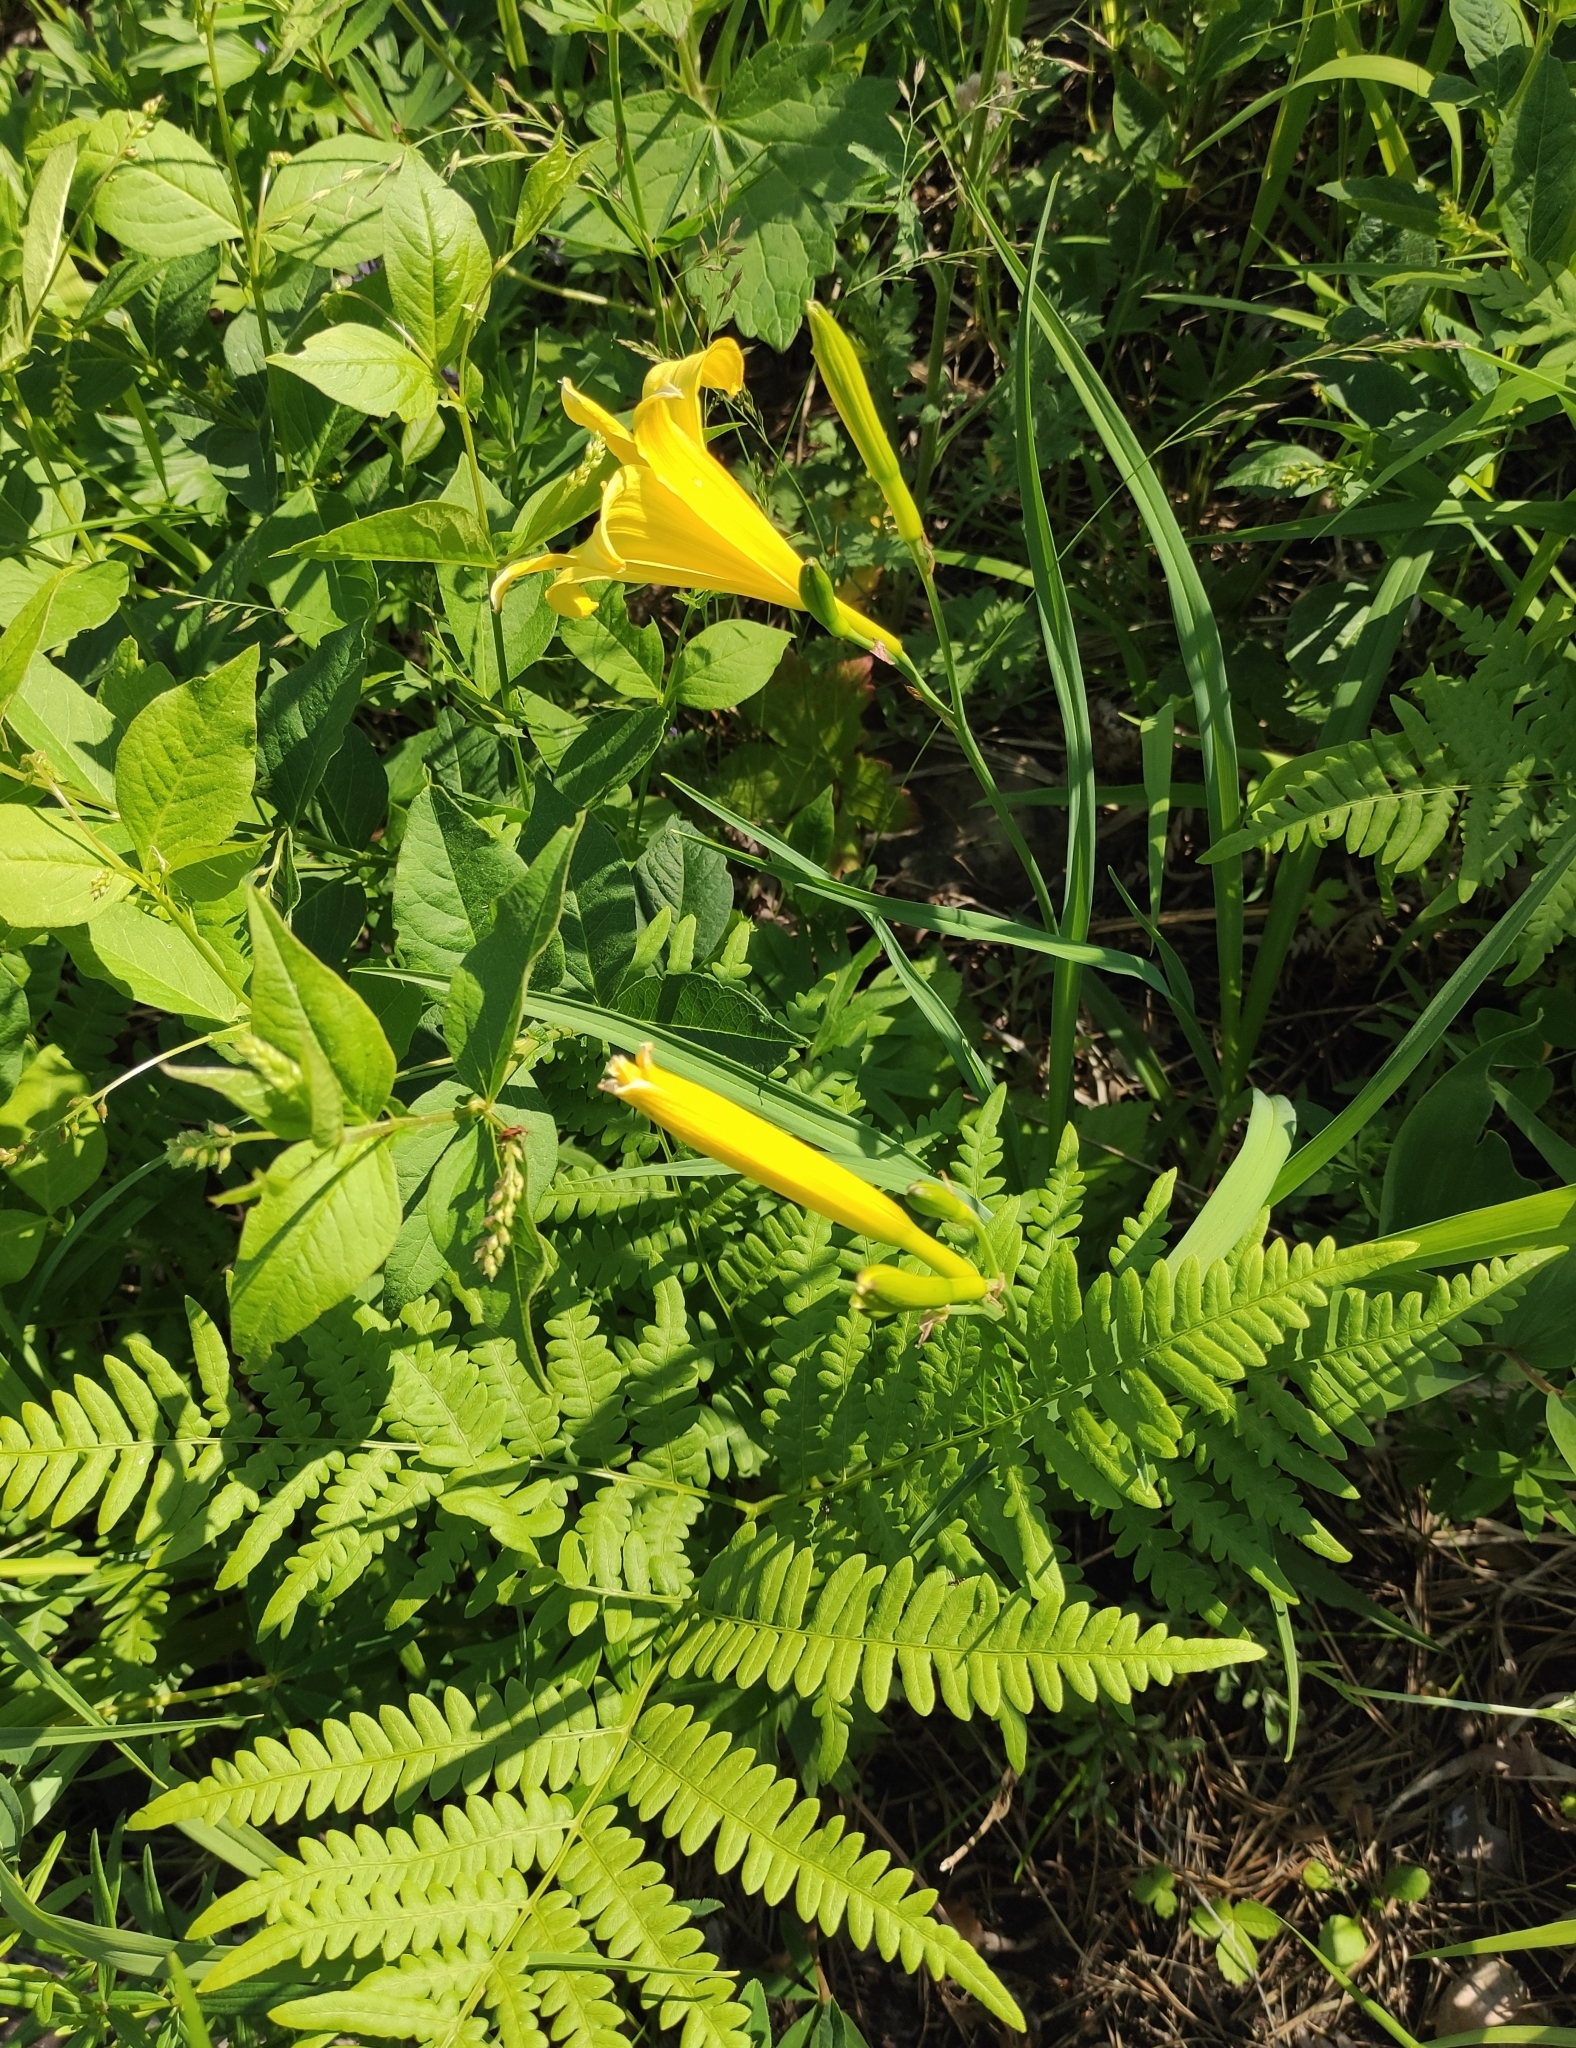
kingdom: Plantae
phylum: Tracheophyta
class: Liliopsida
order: Asparagales
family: Asphodelaceae
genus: Hemerocallis
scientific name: Hemerocallis minor
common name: Small daylily
